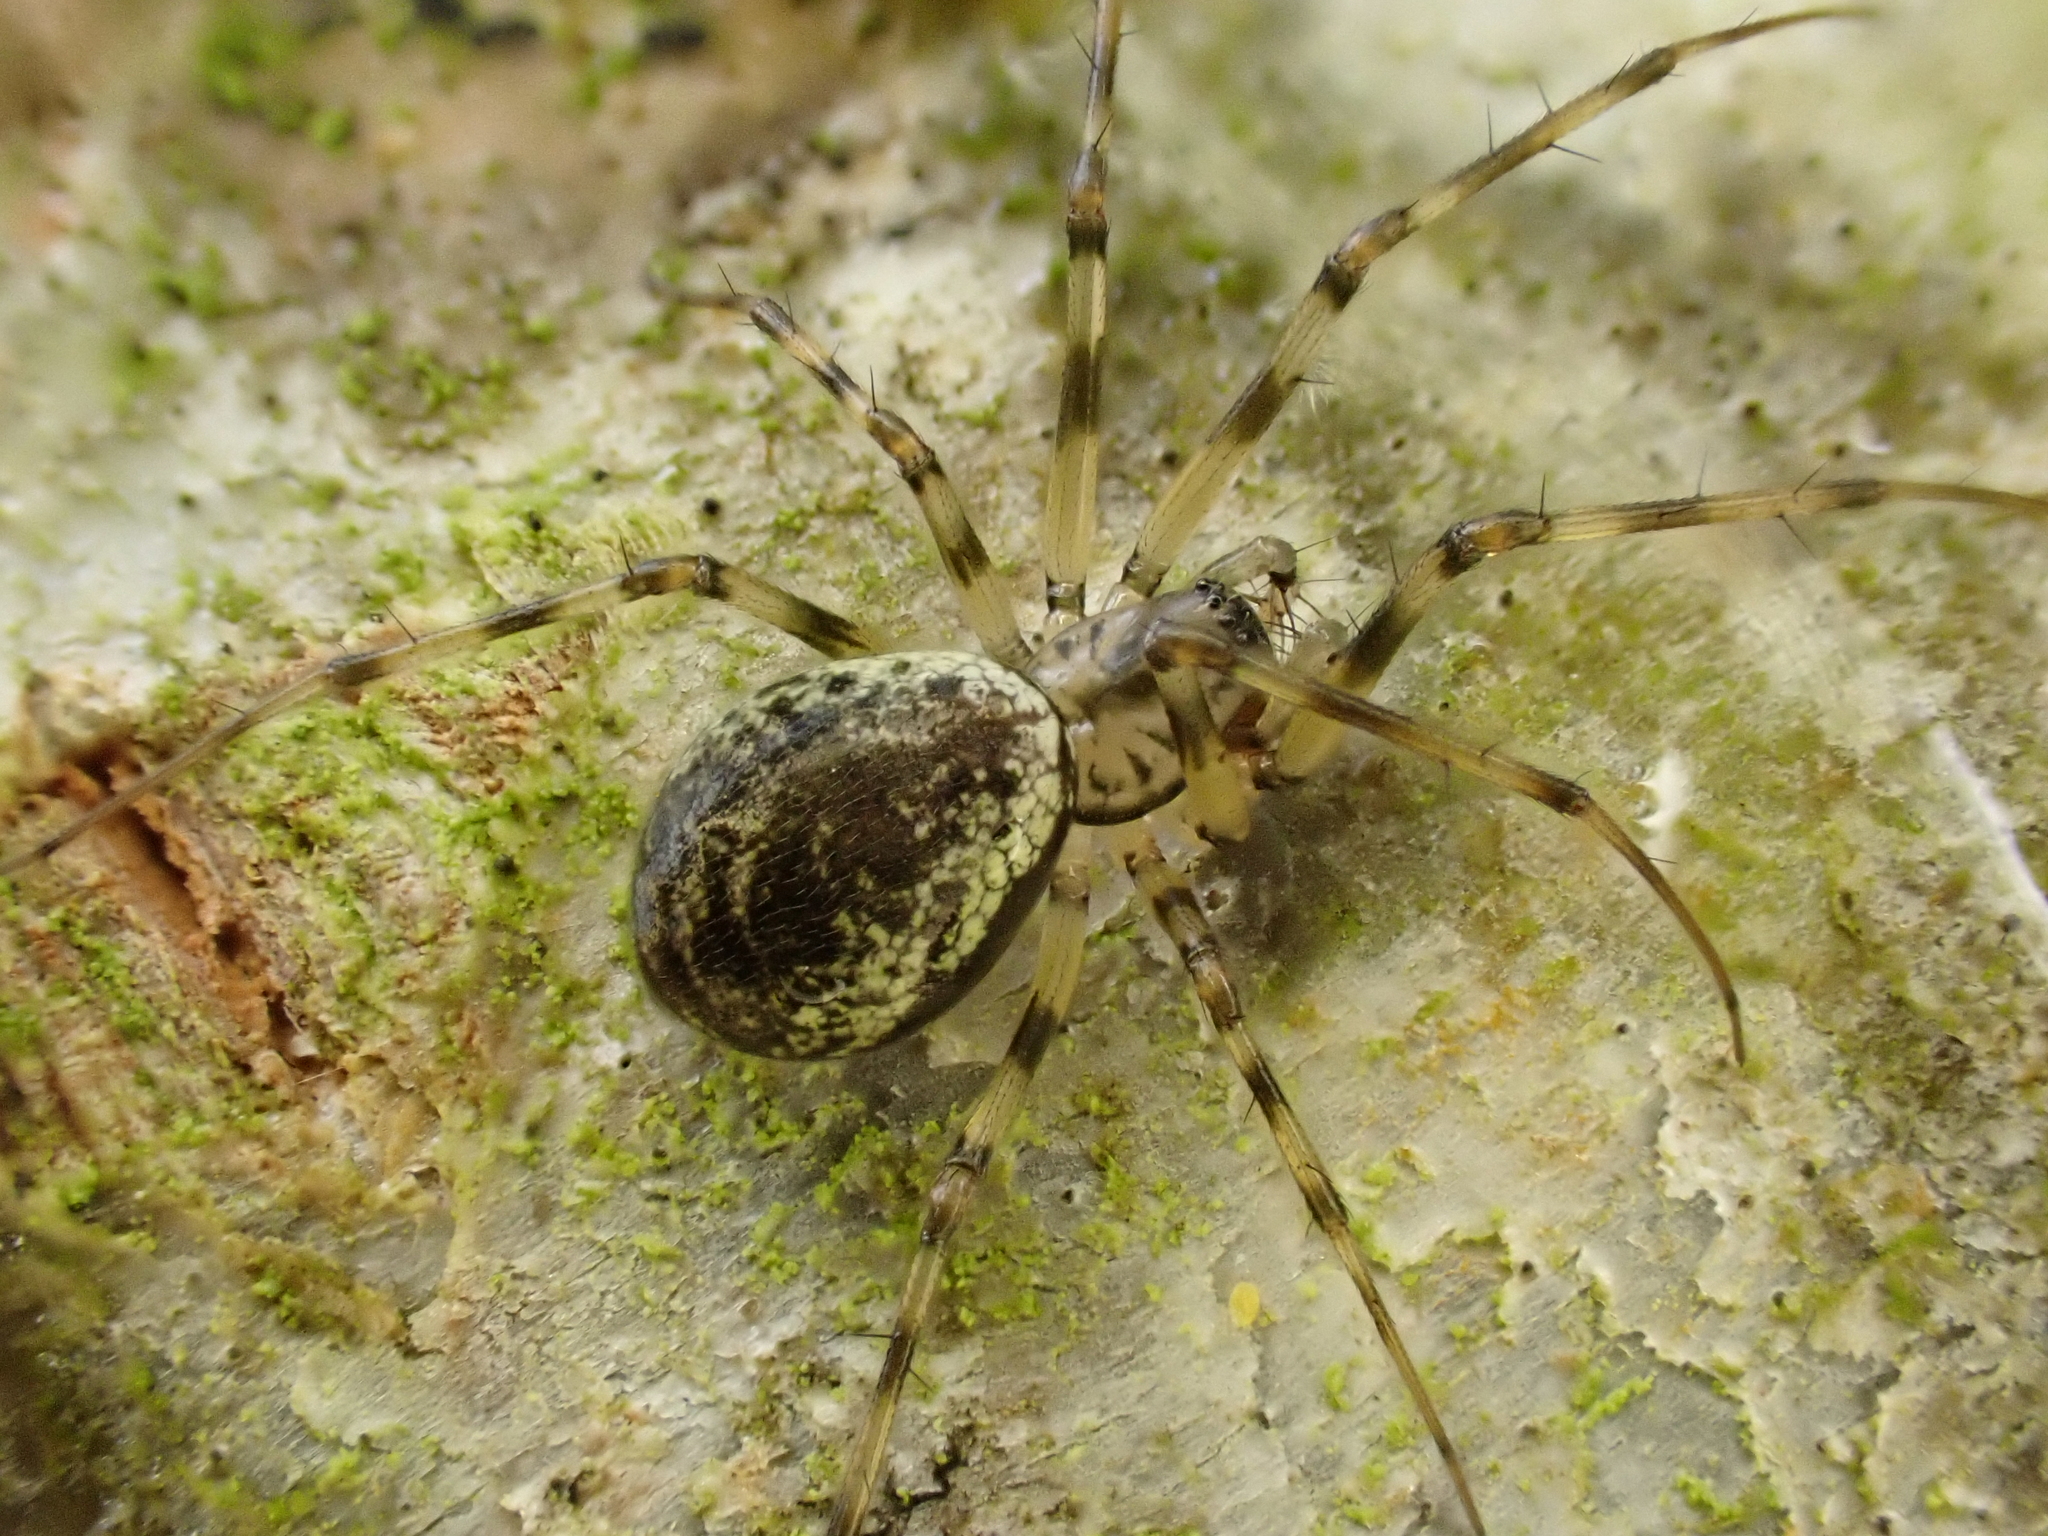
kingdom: Animalia
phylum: Arthropoda
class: Arachnida
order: Araneae
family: Linyphiidae
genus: Drapetisca
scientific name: Drapetisca socialis
